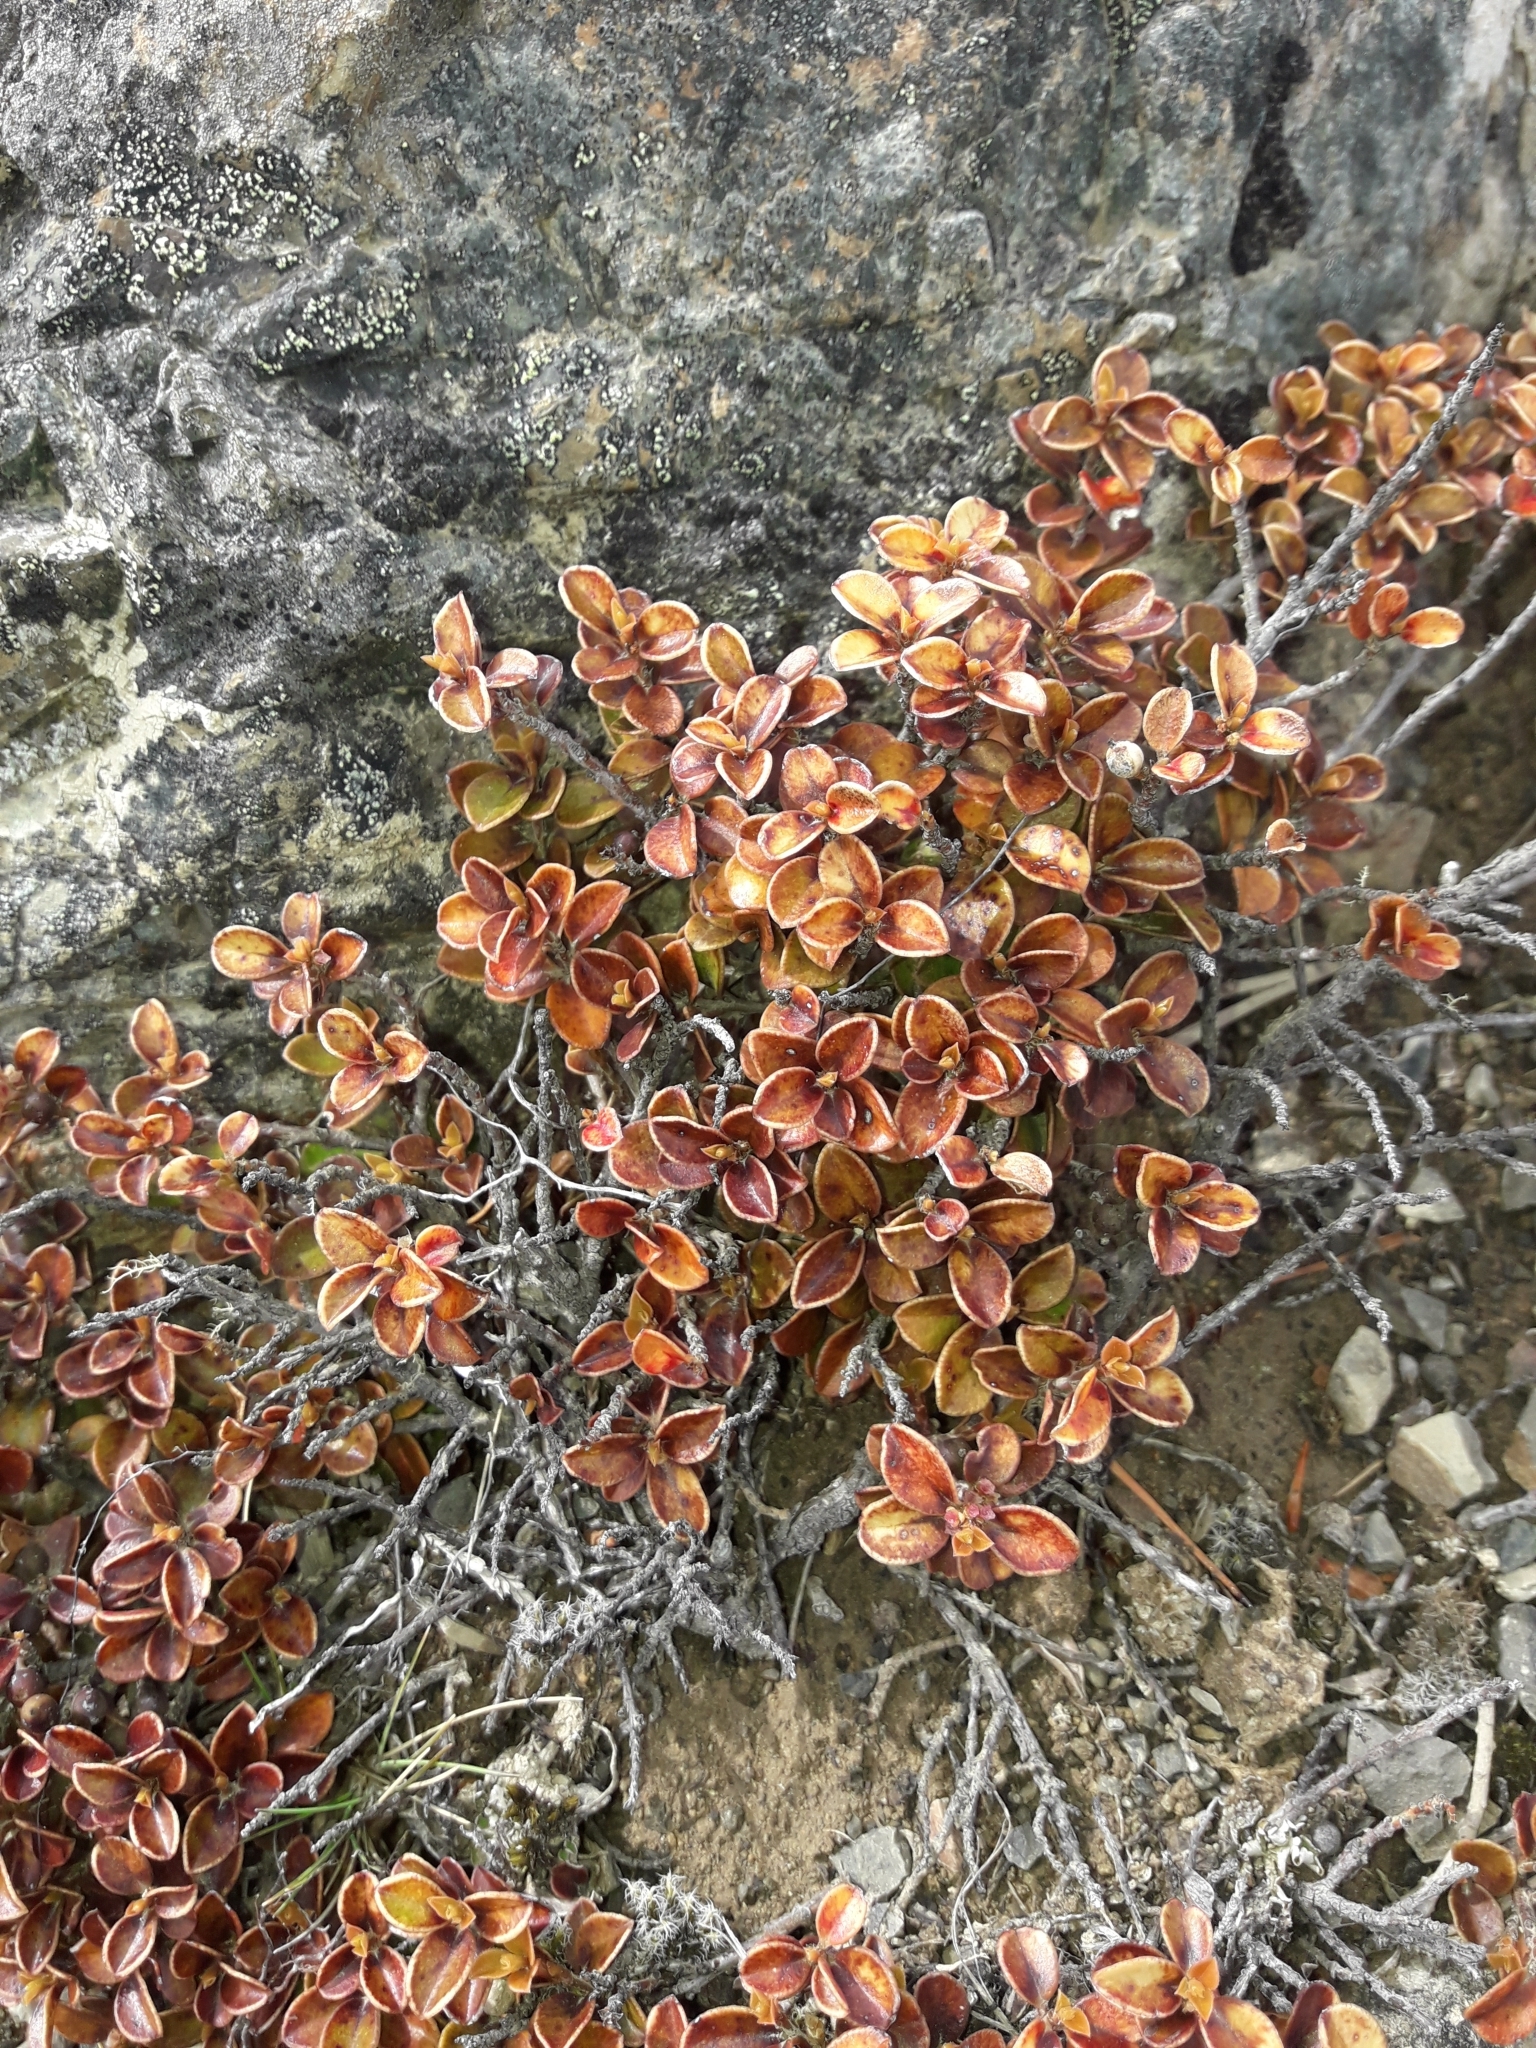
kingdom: Plantae
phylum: Tracheophyta
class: Magnoliopsida
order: Ericales
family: Primulaceae
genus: Myrsine
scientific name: Myrsine nummularia
